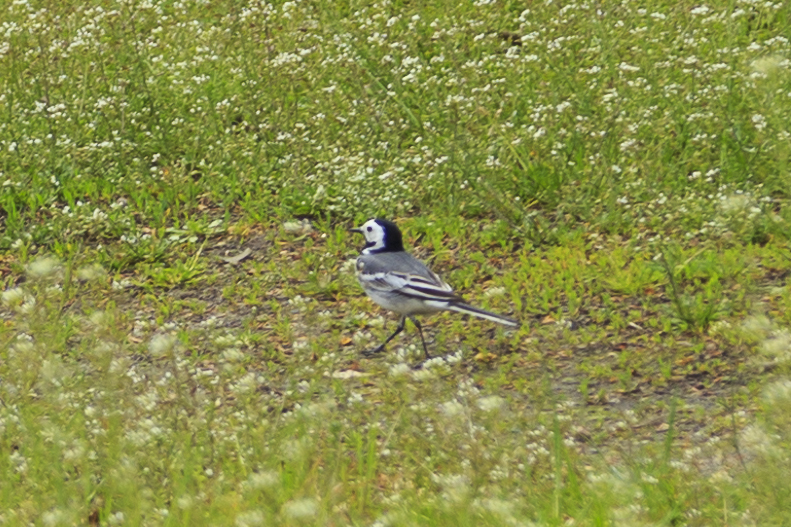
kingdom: Animalia
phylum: Chordata
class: Aves
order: Passeriformes
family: Motacillidae
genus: Motacilla
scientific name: Motacilla alba
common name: White wagtail
